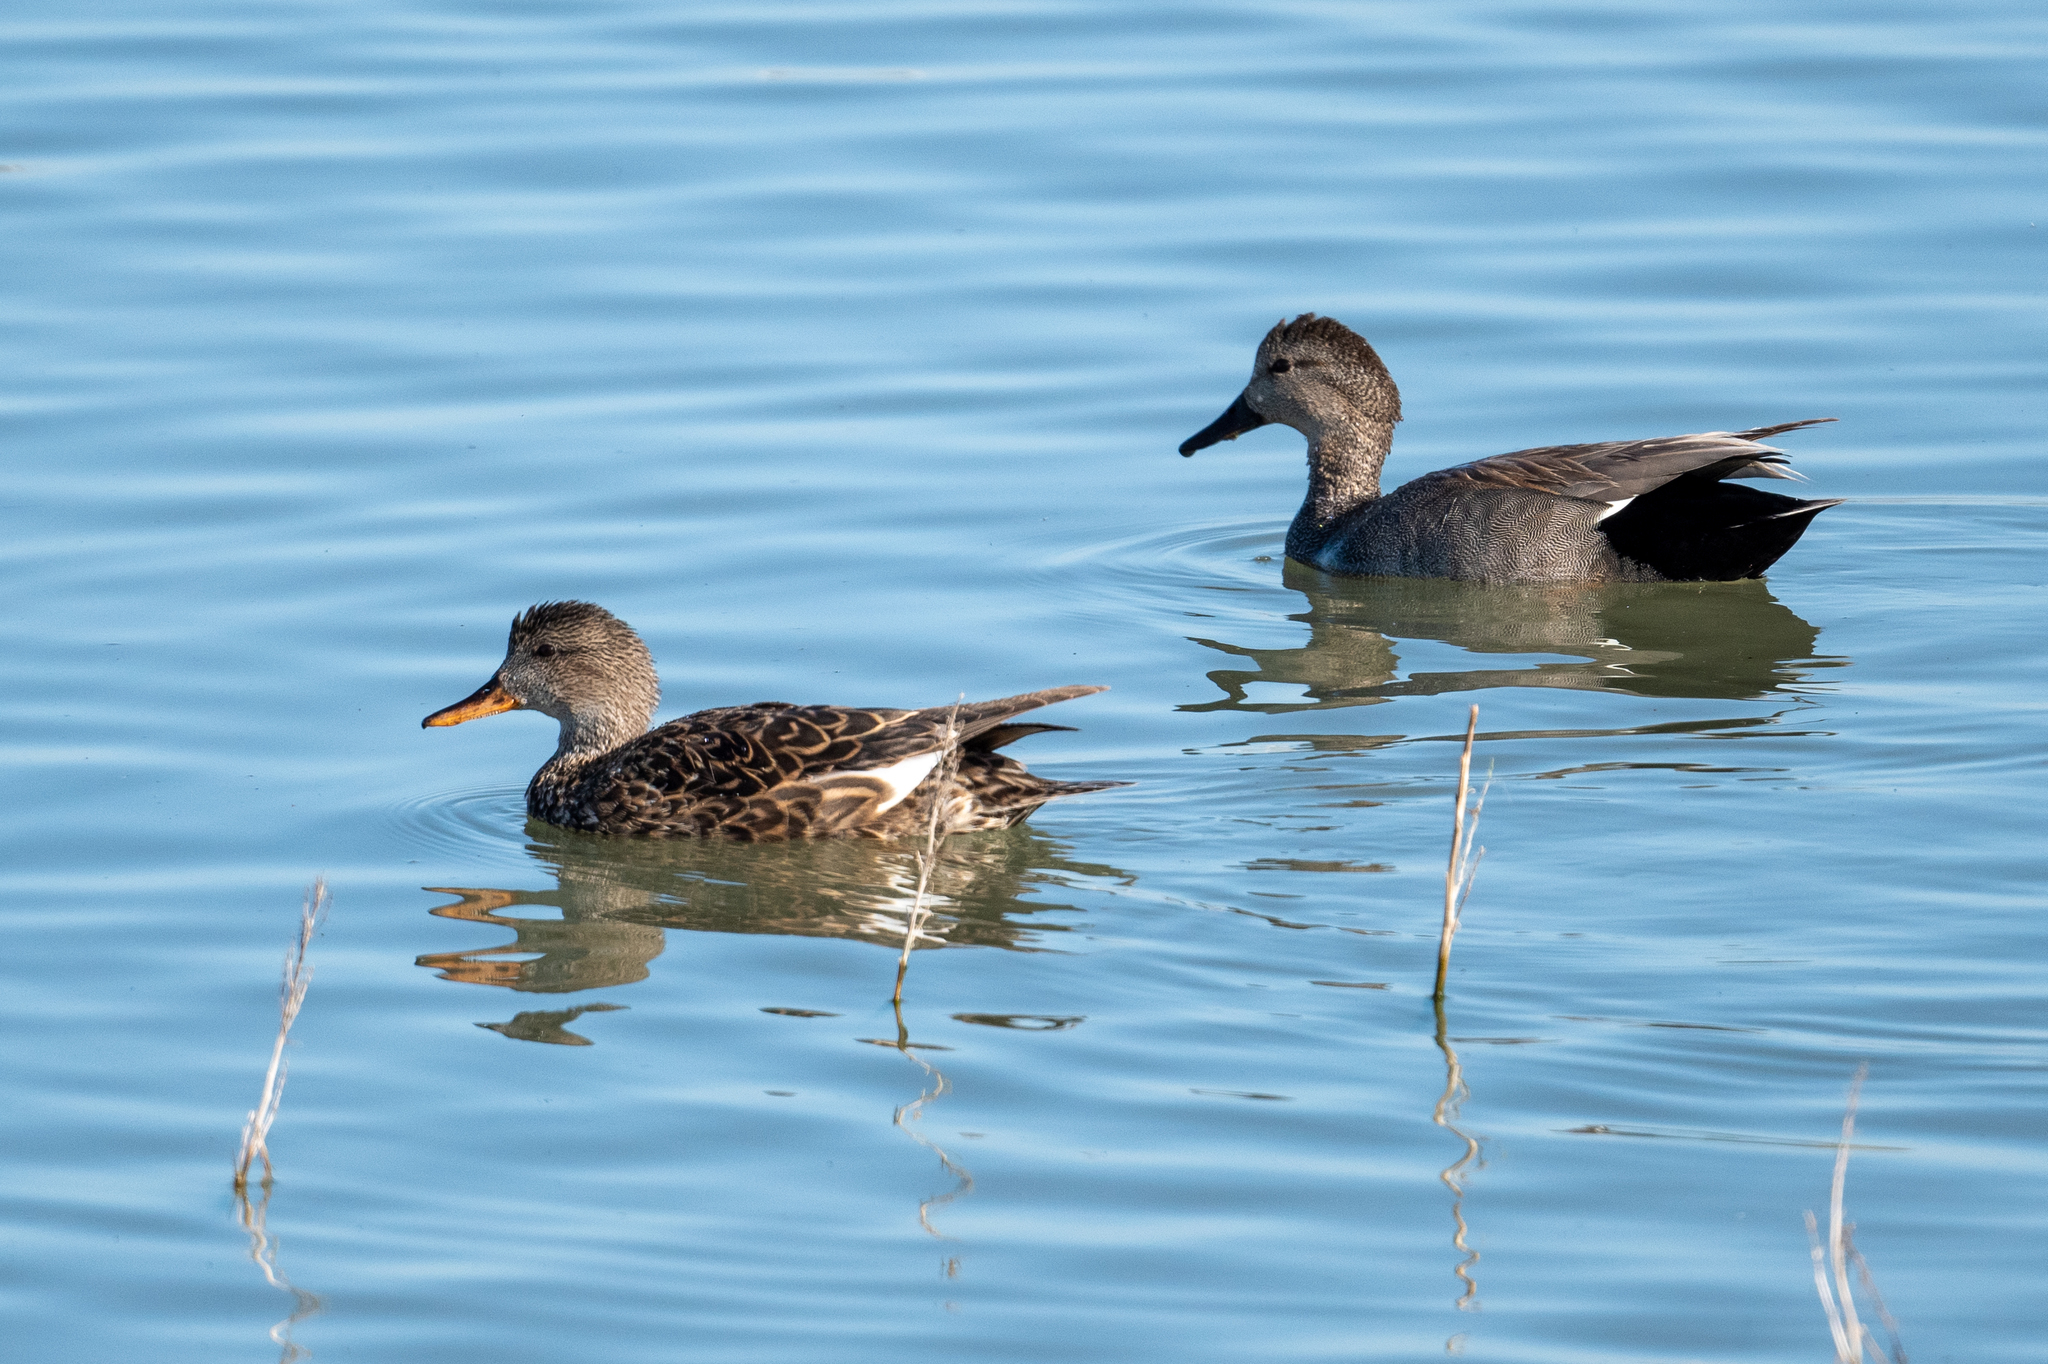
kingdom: Animalia
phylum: Chordata
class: Aves
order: Anseriformes
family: Anatidae
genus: Mareca
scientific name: Mareca strepera
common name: Gadwall
